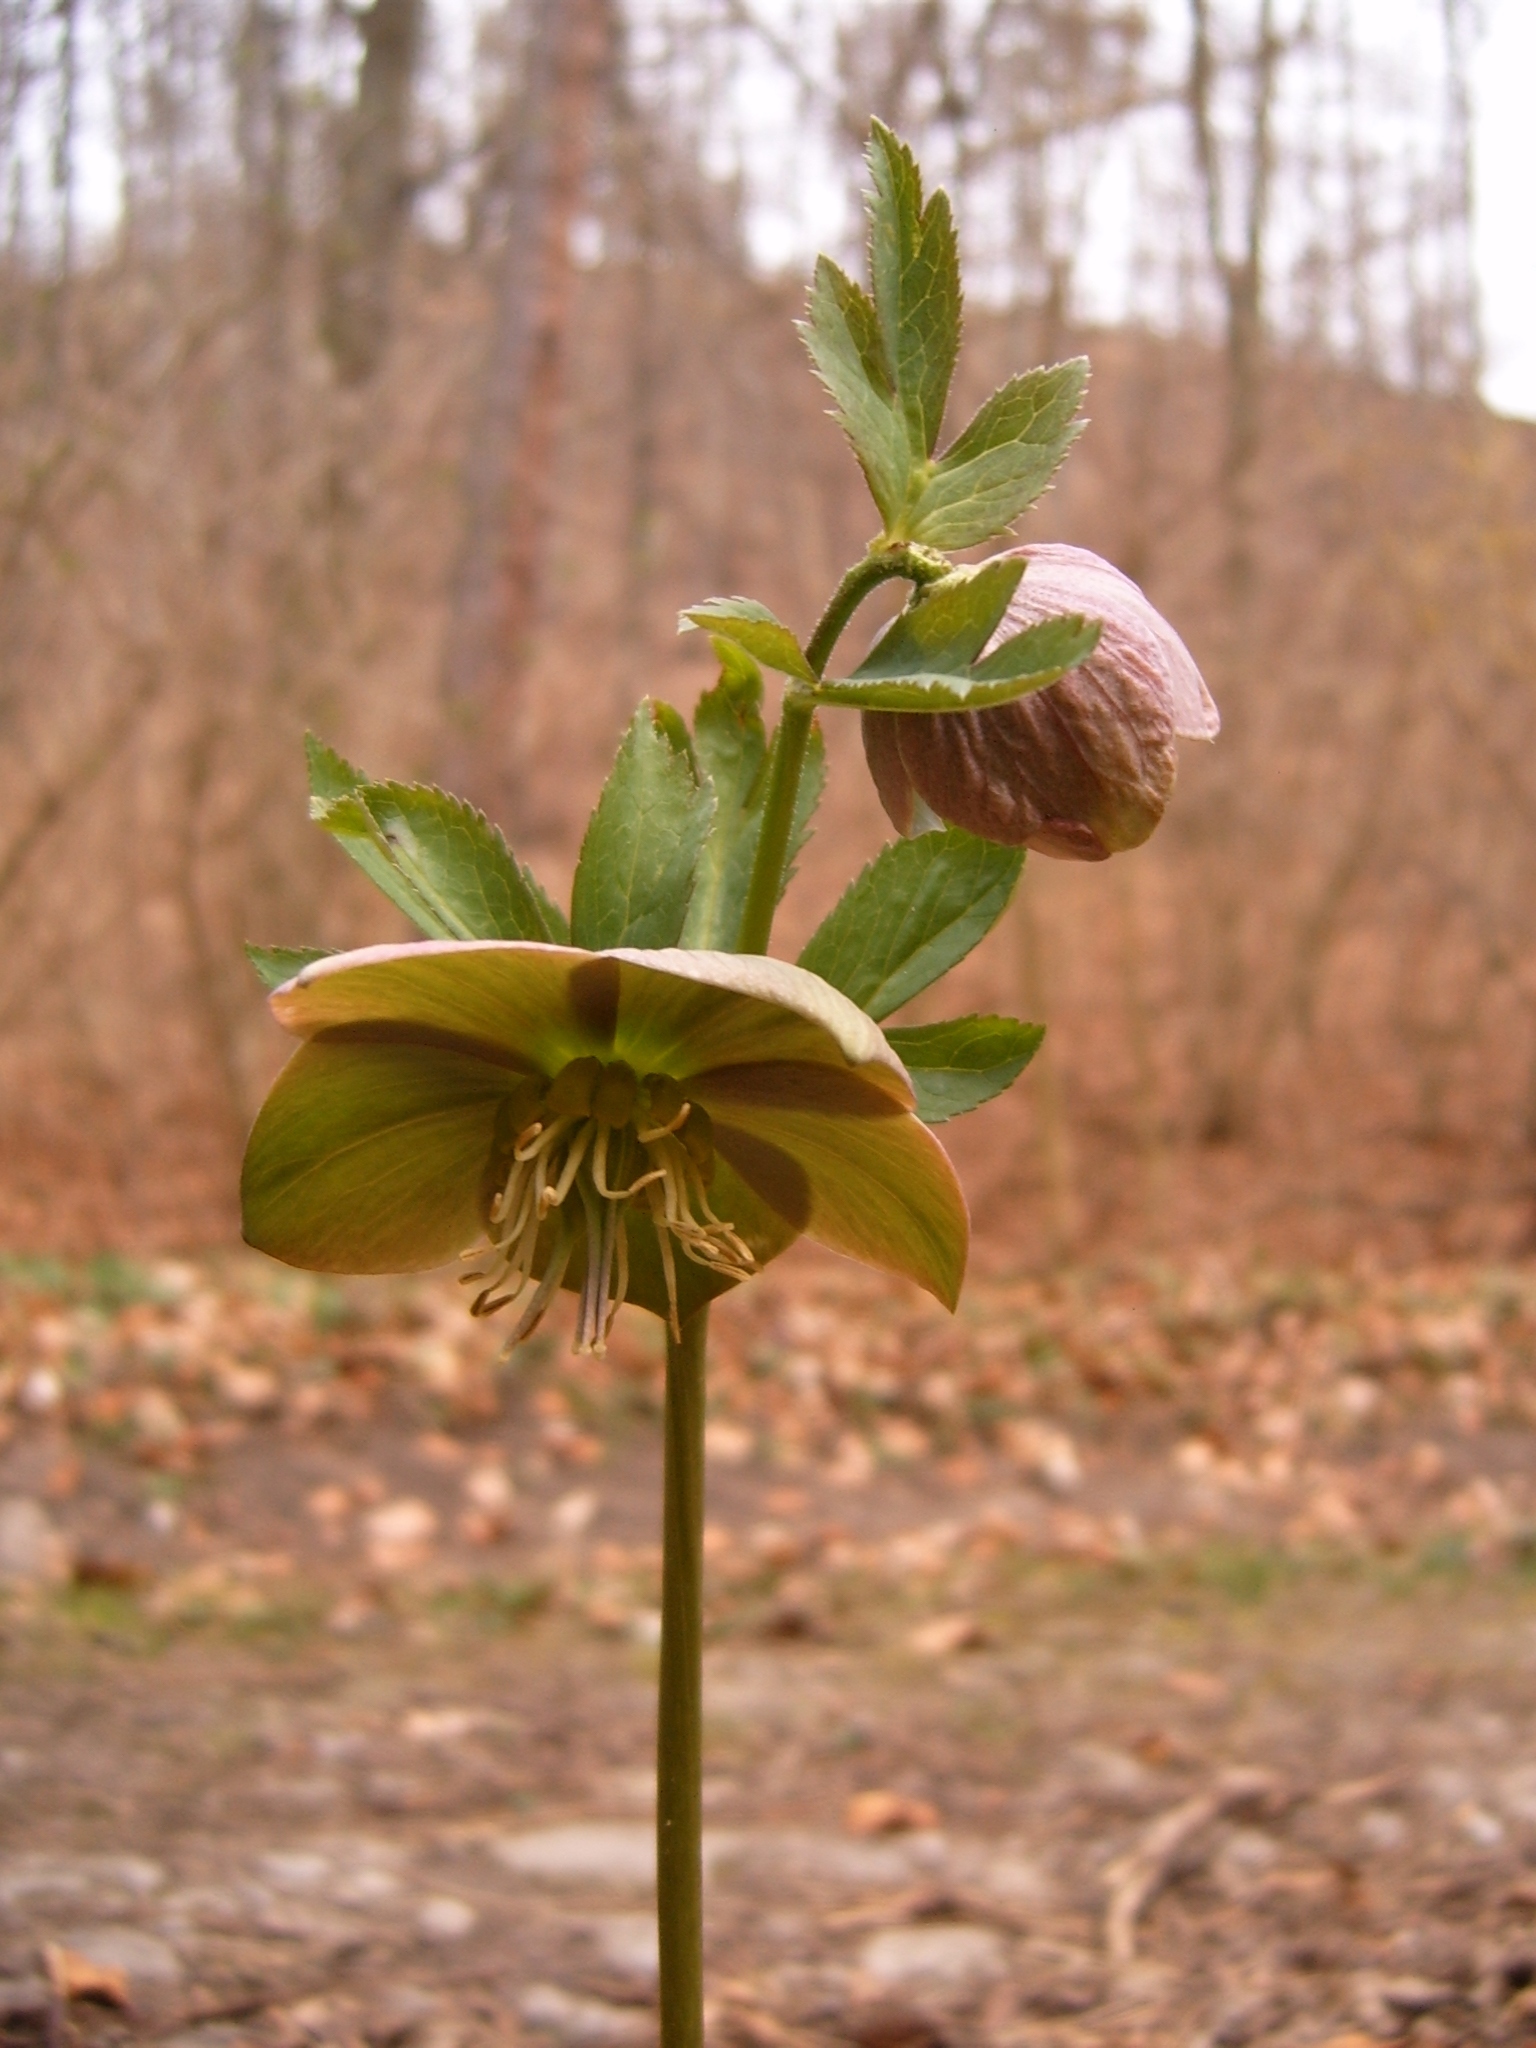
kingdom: Plantae
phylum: Tracheophyta
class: Magnoliopsida
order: Ranunculales
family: Ranunculaceae
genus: Helleborus
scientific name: Helleborus purpurascens
